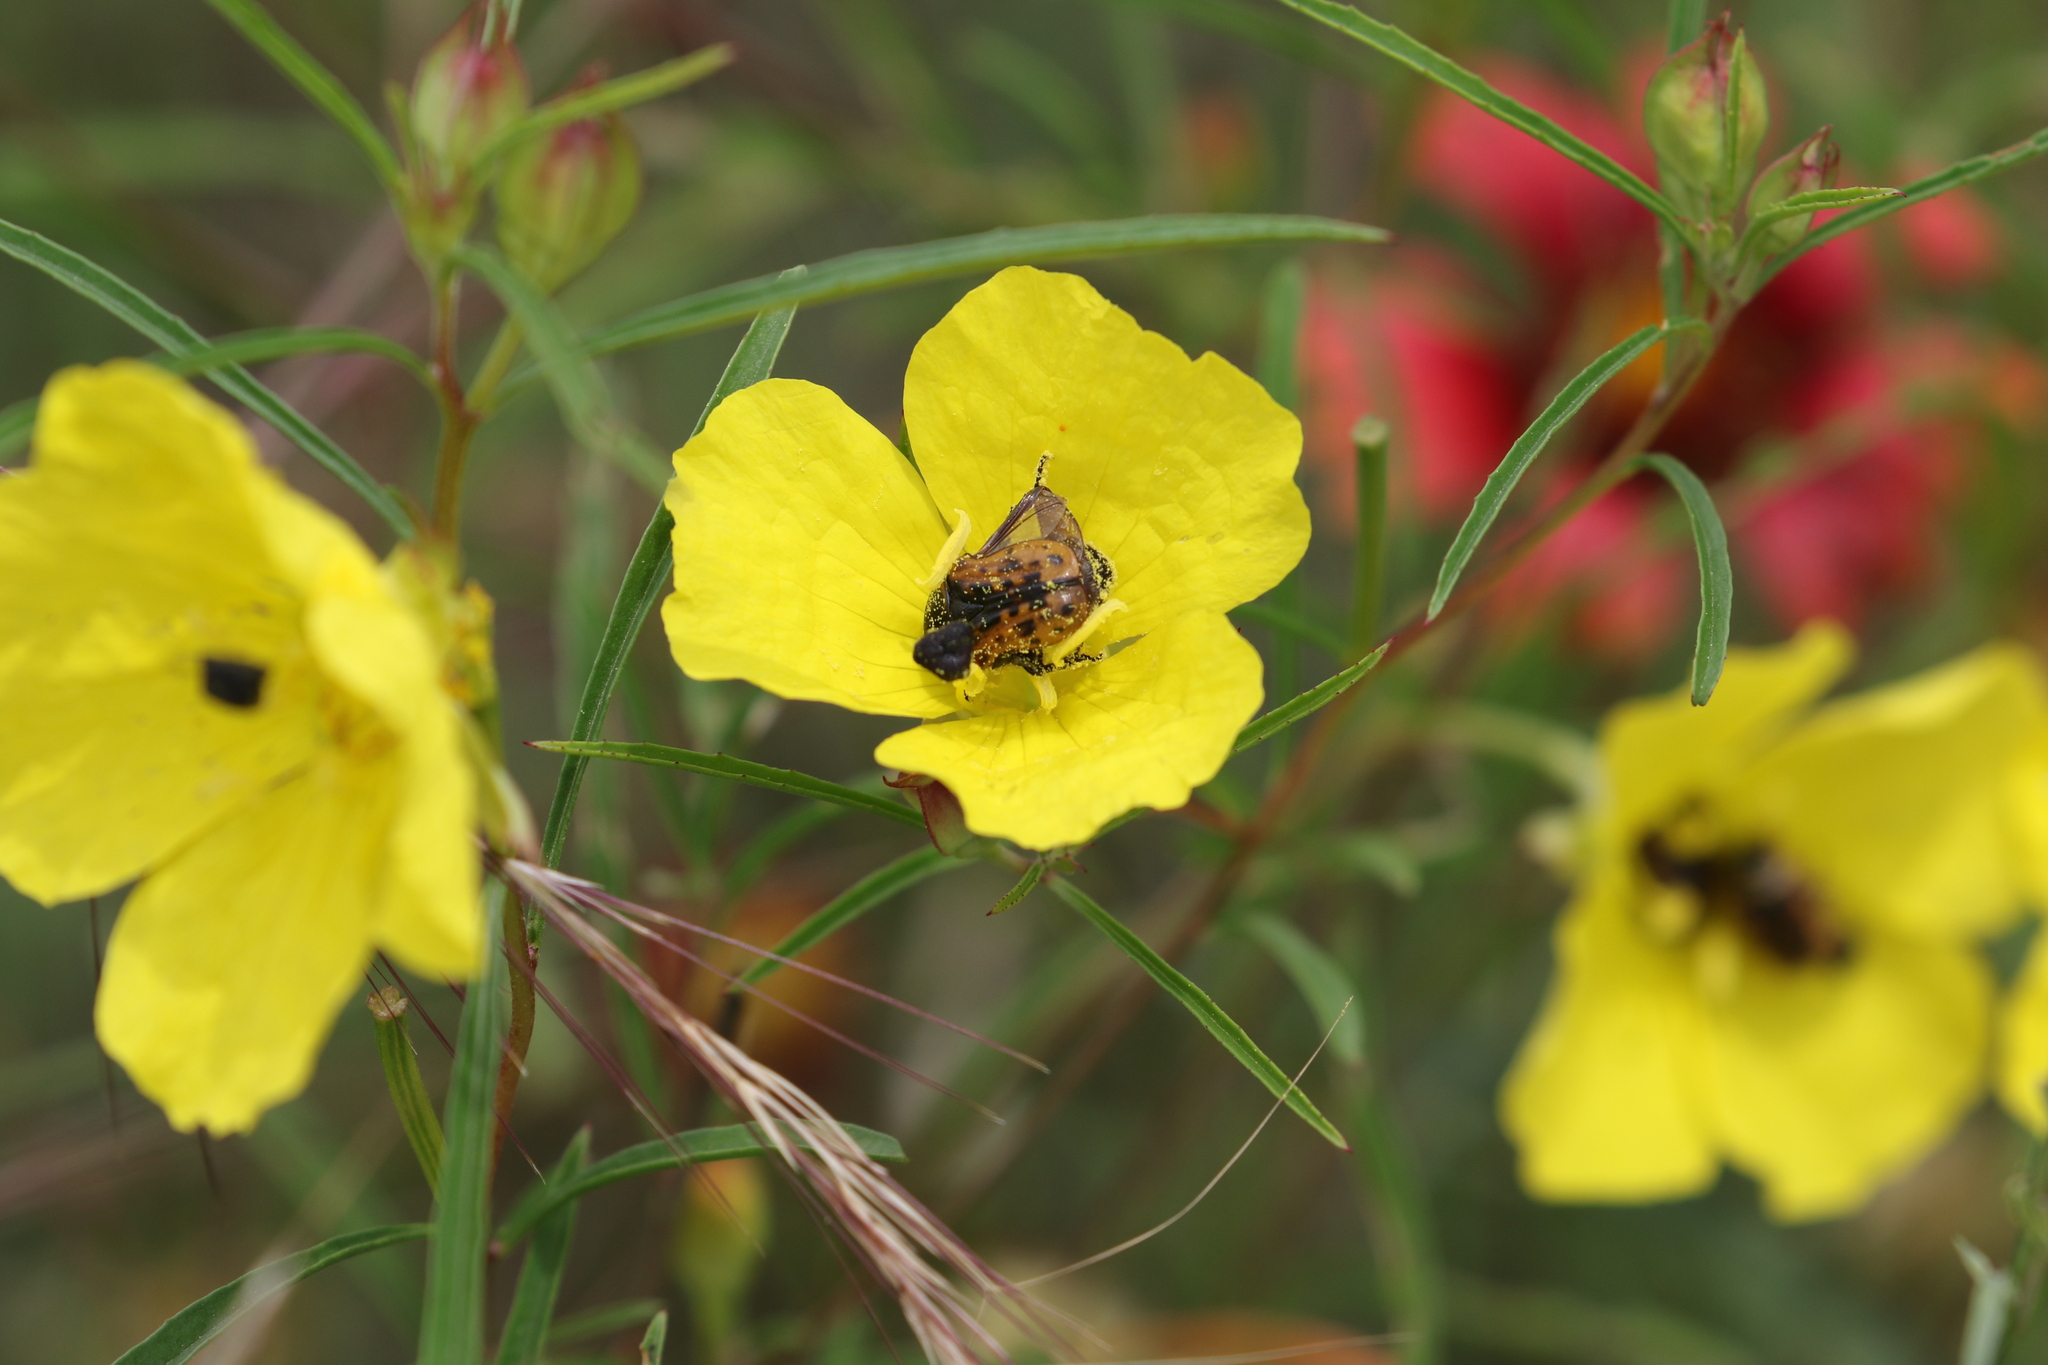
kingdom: Animalia
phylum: Arthropoda
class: Insecta
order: Coleoptera
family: Scarabaeidae
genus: Euphoria
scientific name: Euphoria kernii
